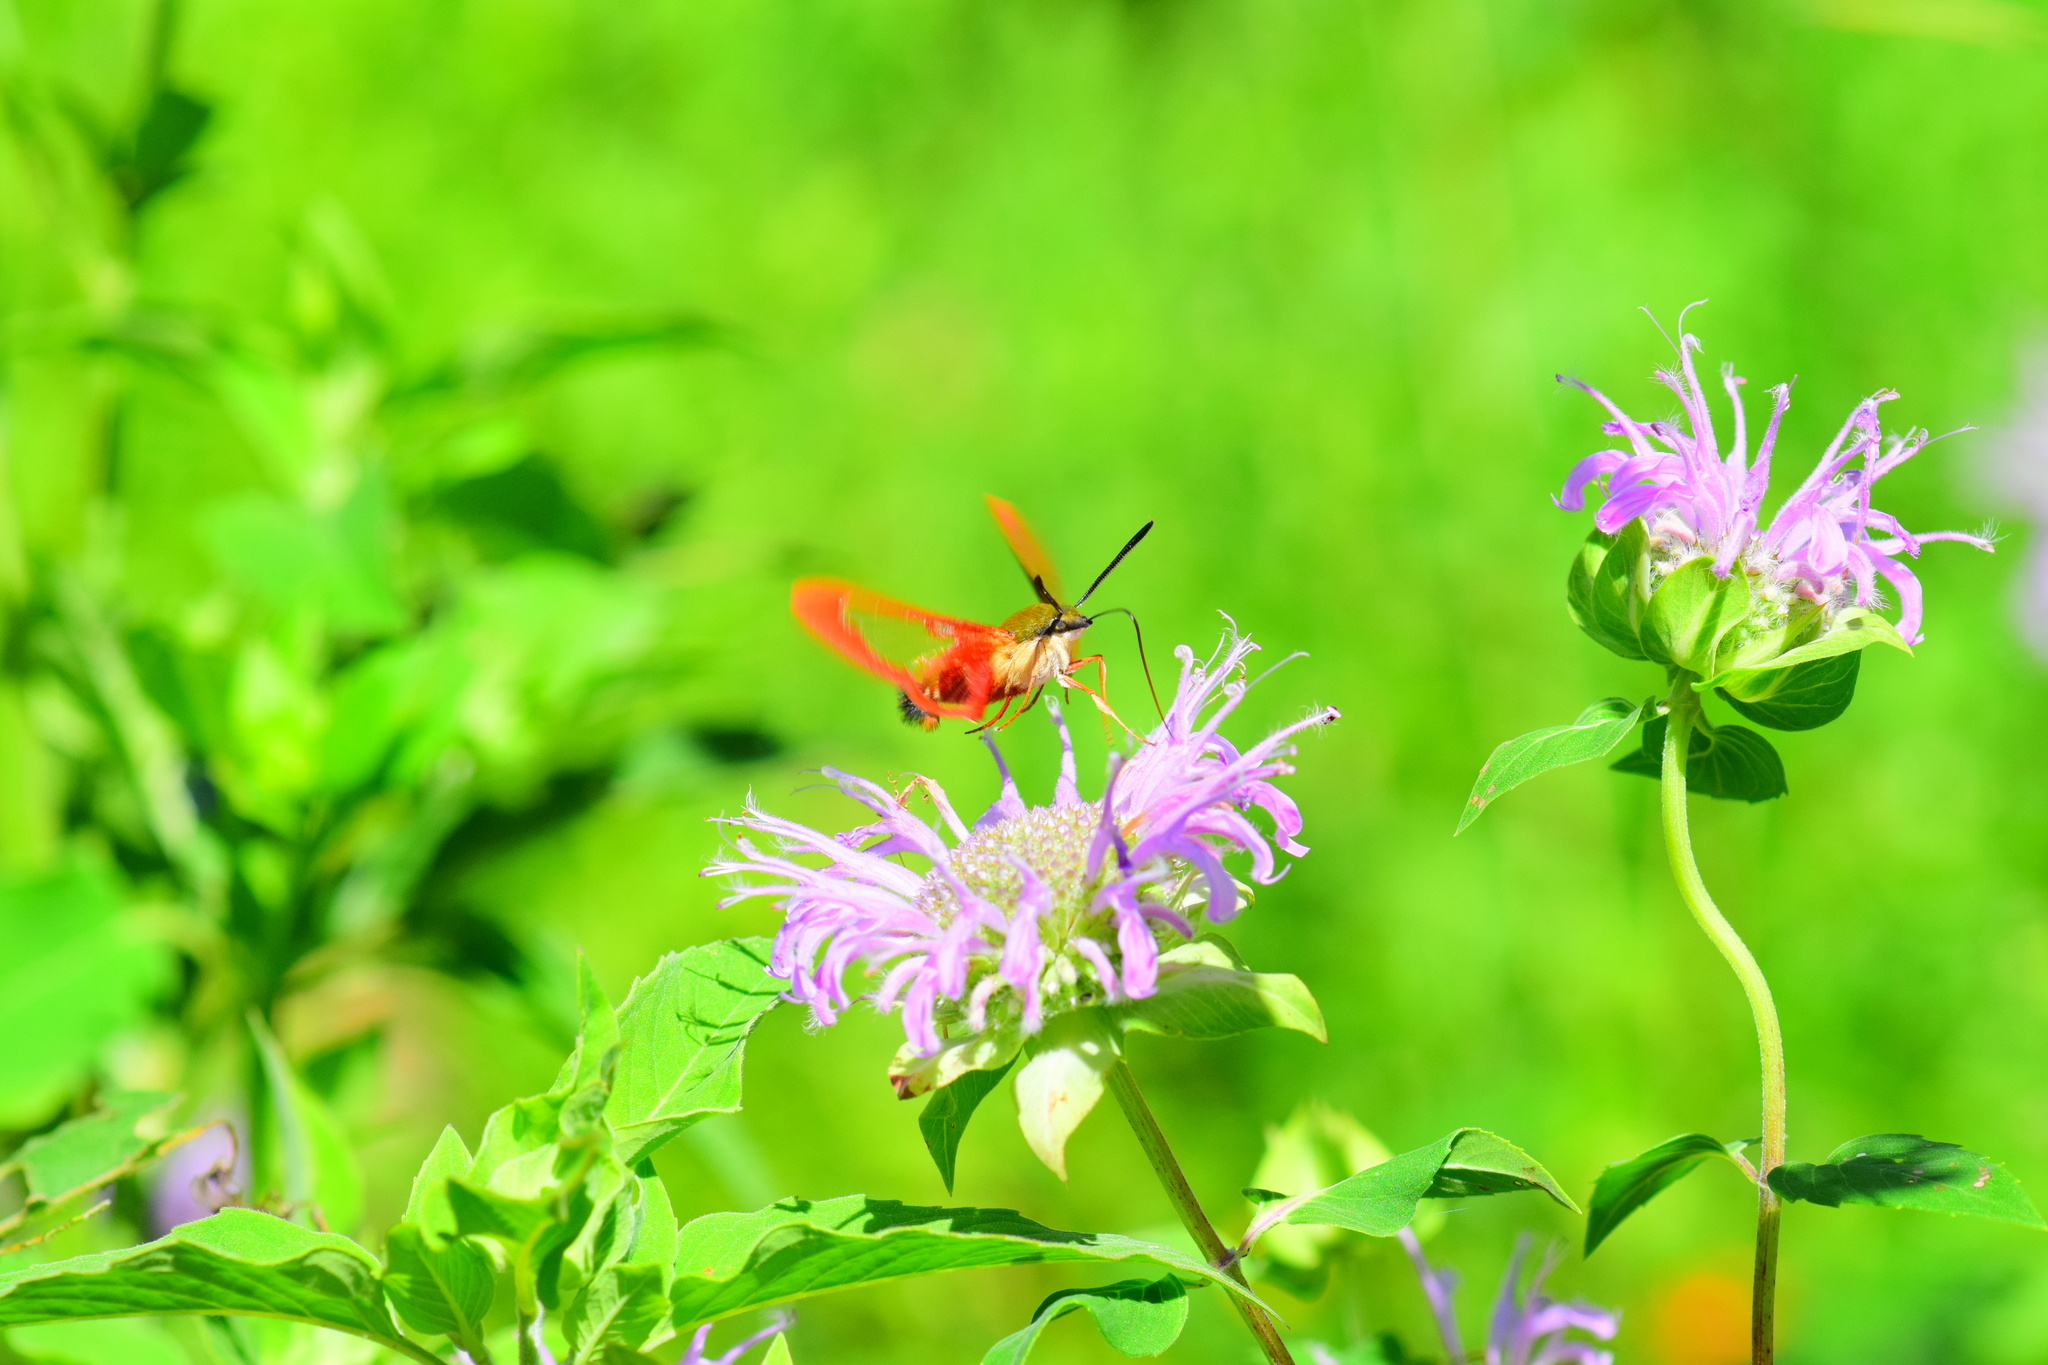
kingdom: Animalia
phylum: Arthropoda
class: Insecta
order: Lepidoptera
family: Sphingidae
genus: Hemaris
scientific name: Hemaris thysbe
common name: Common clear-wing
